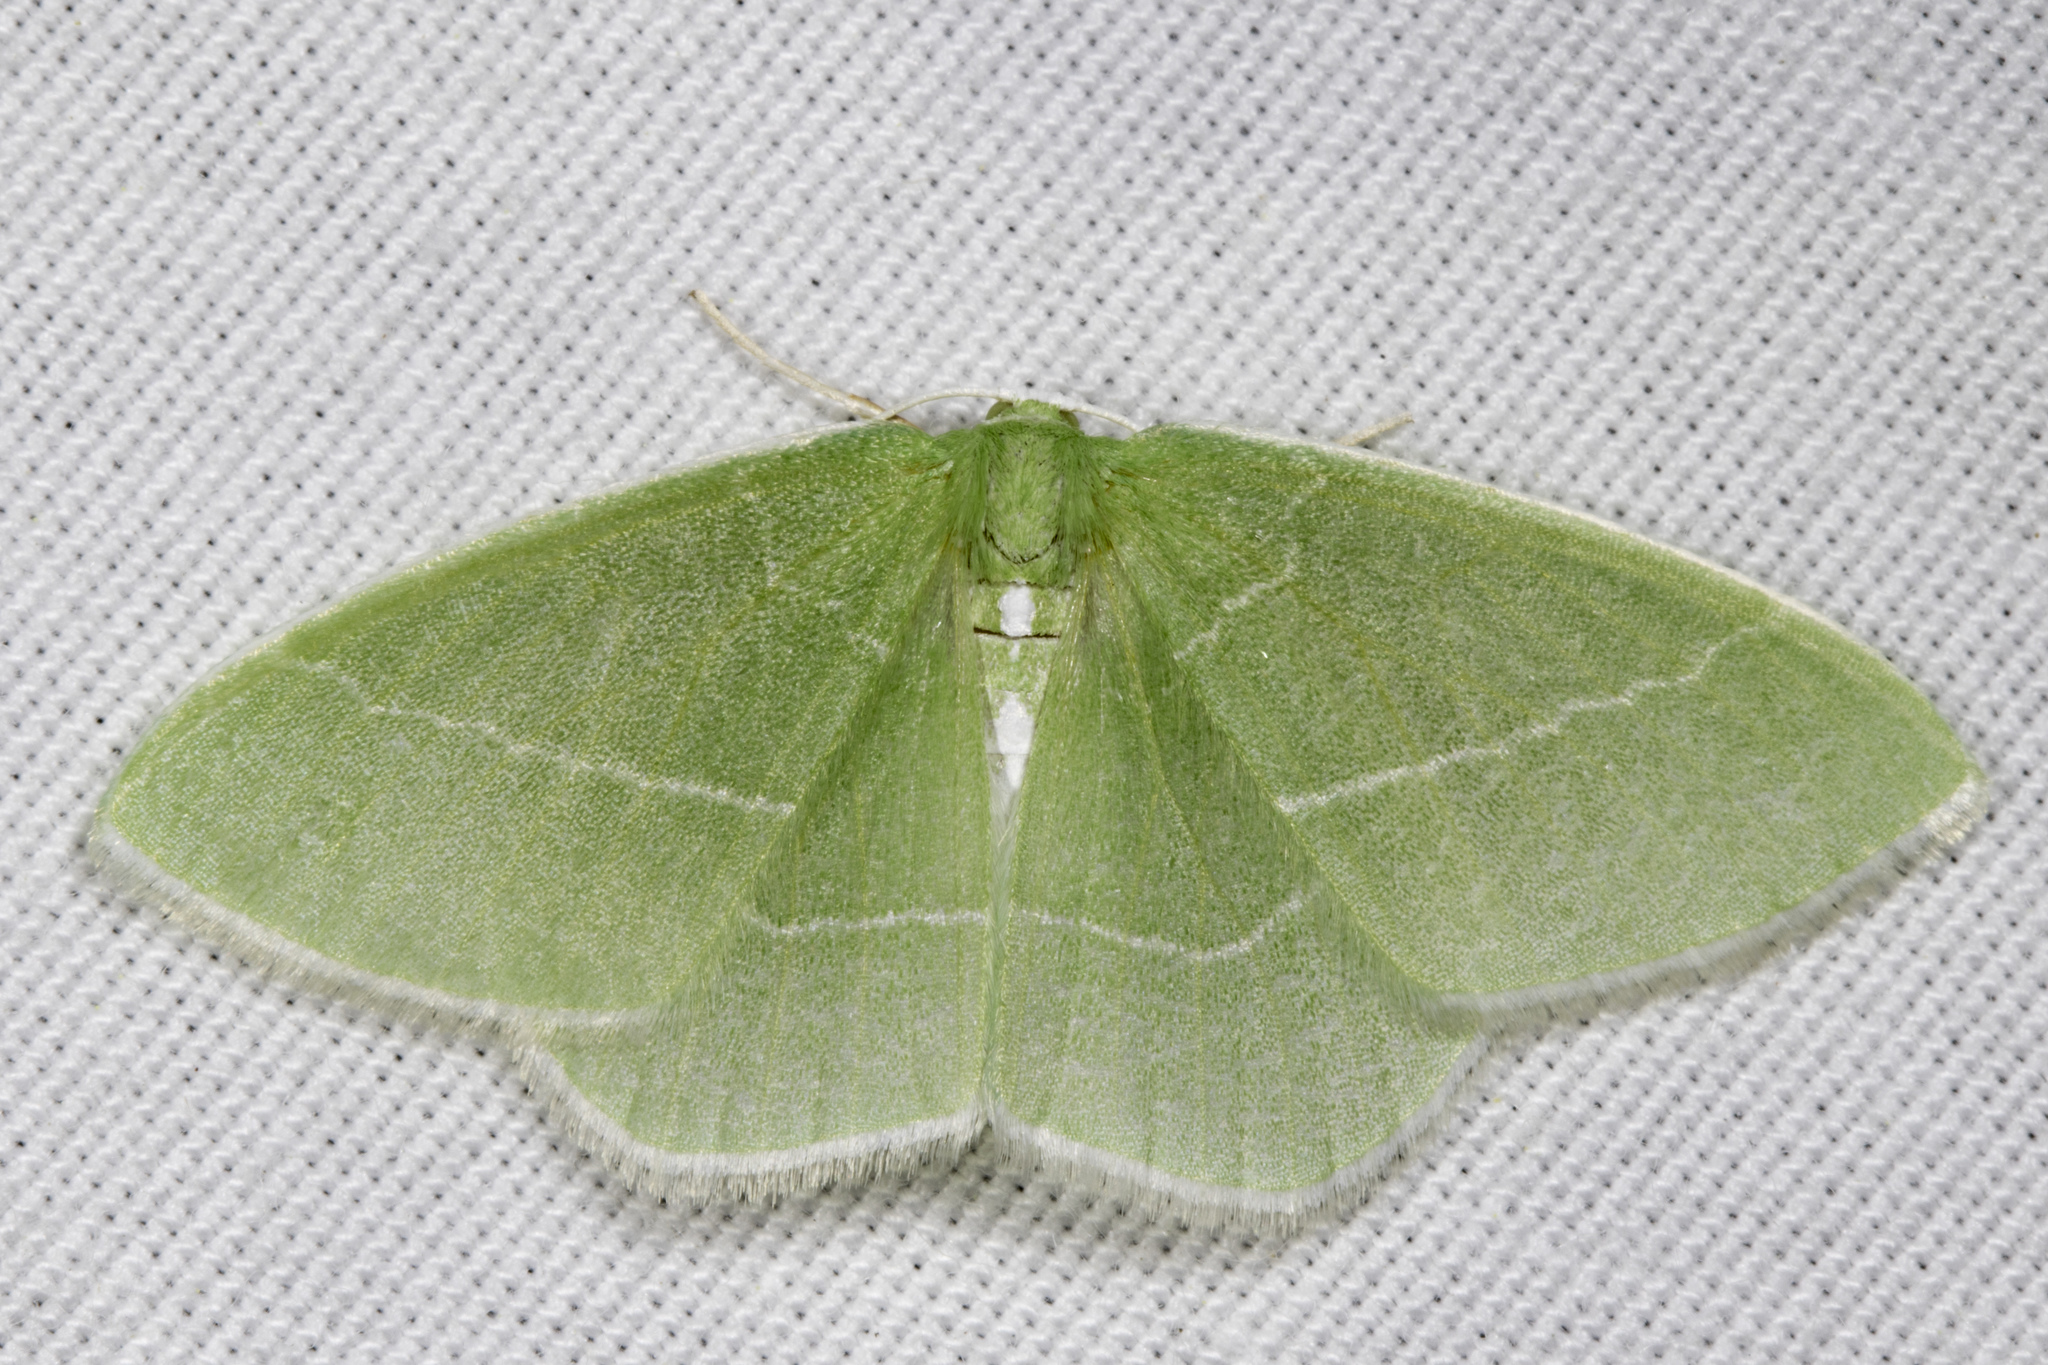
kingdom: Animalia
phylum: Arthropoda
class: Insecta
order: Lepidoptera
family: Geometridae
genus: Nemoria
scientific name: Nemoria mimosaria
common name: White-fringed emerald
